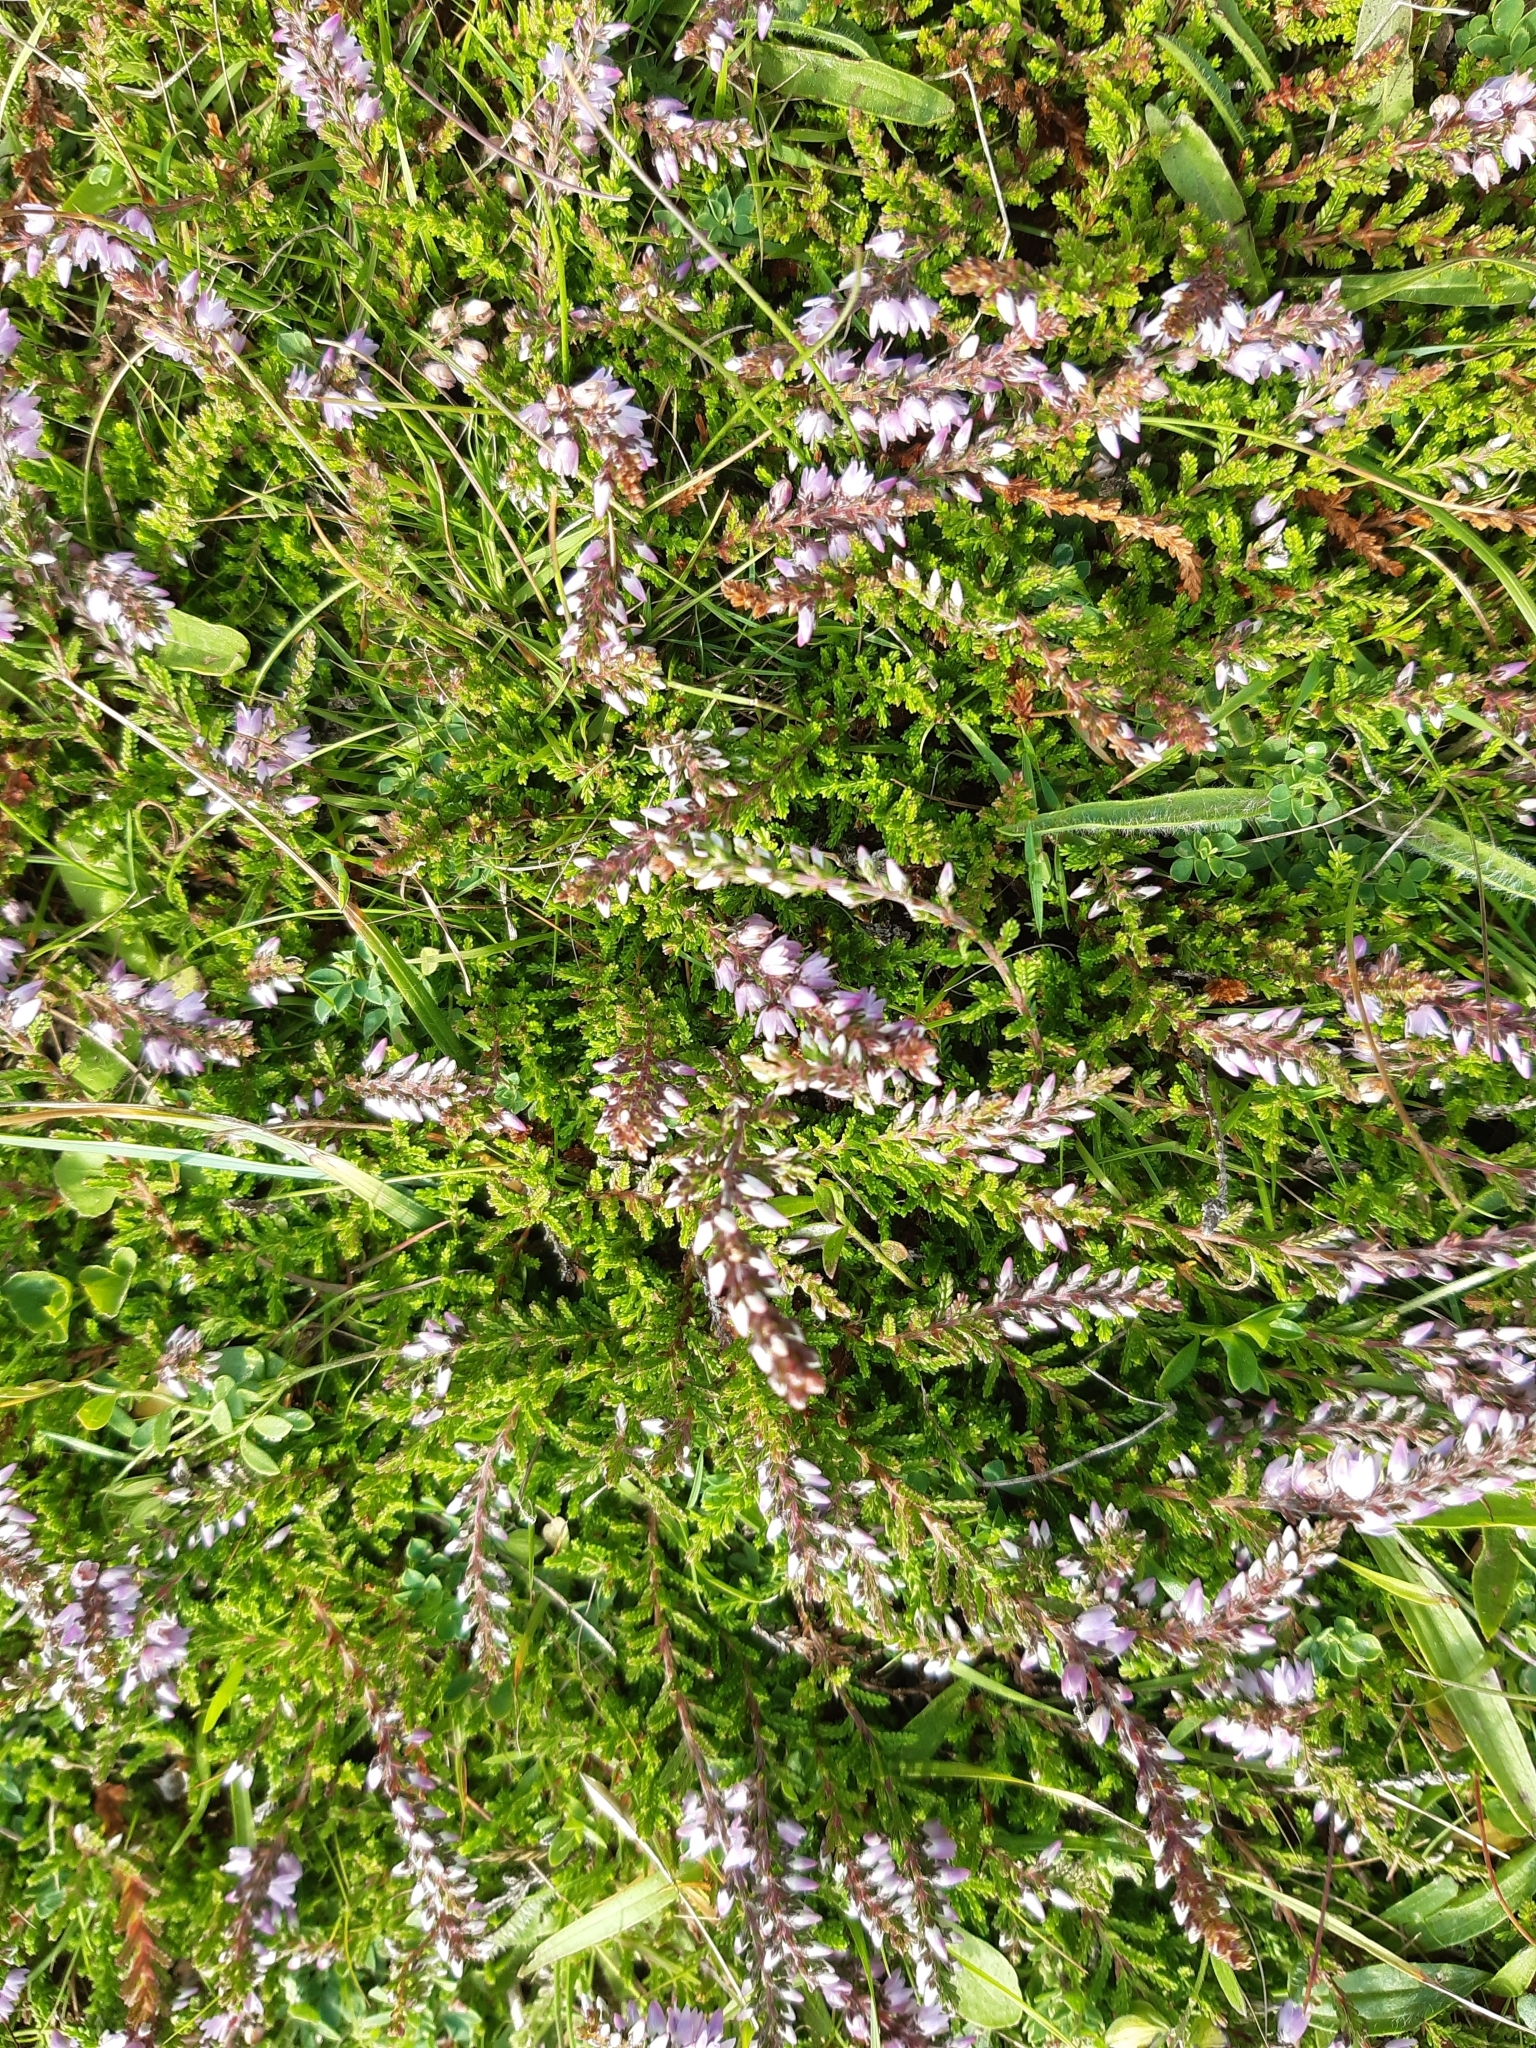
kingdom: Plantae
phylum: Tracheophyta
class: Magnoliopsida
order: Ericales
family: Ericaceae
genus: Calluna
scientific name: Calluna vulgaris
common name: Heather
